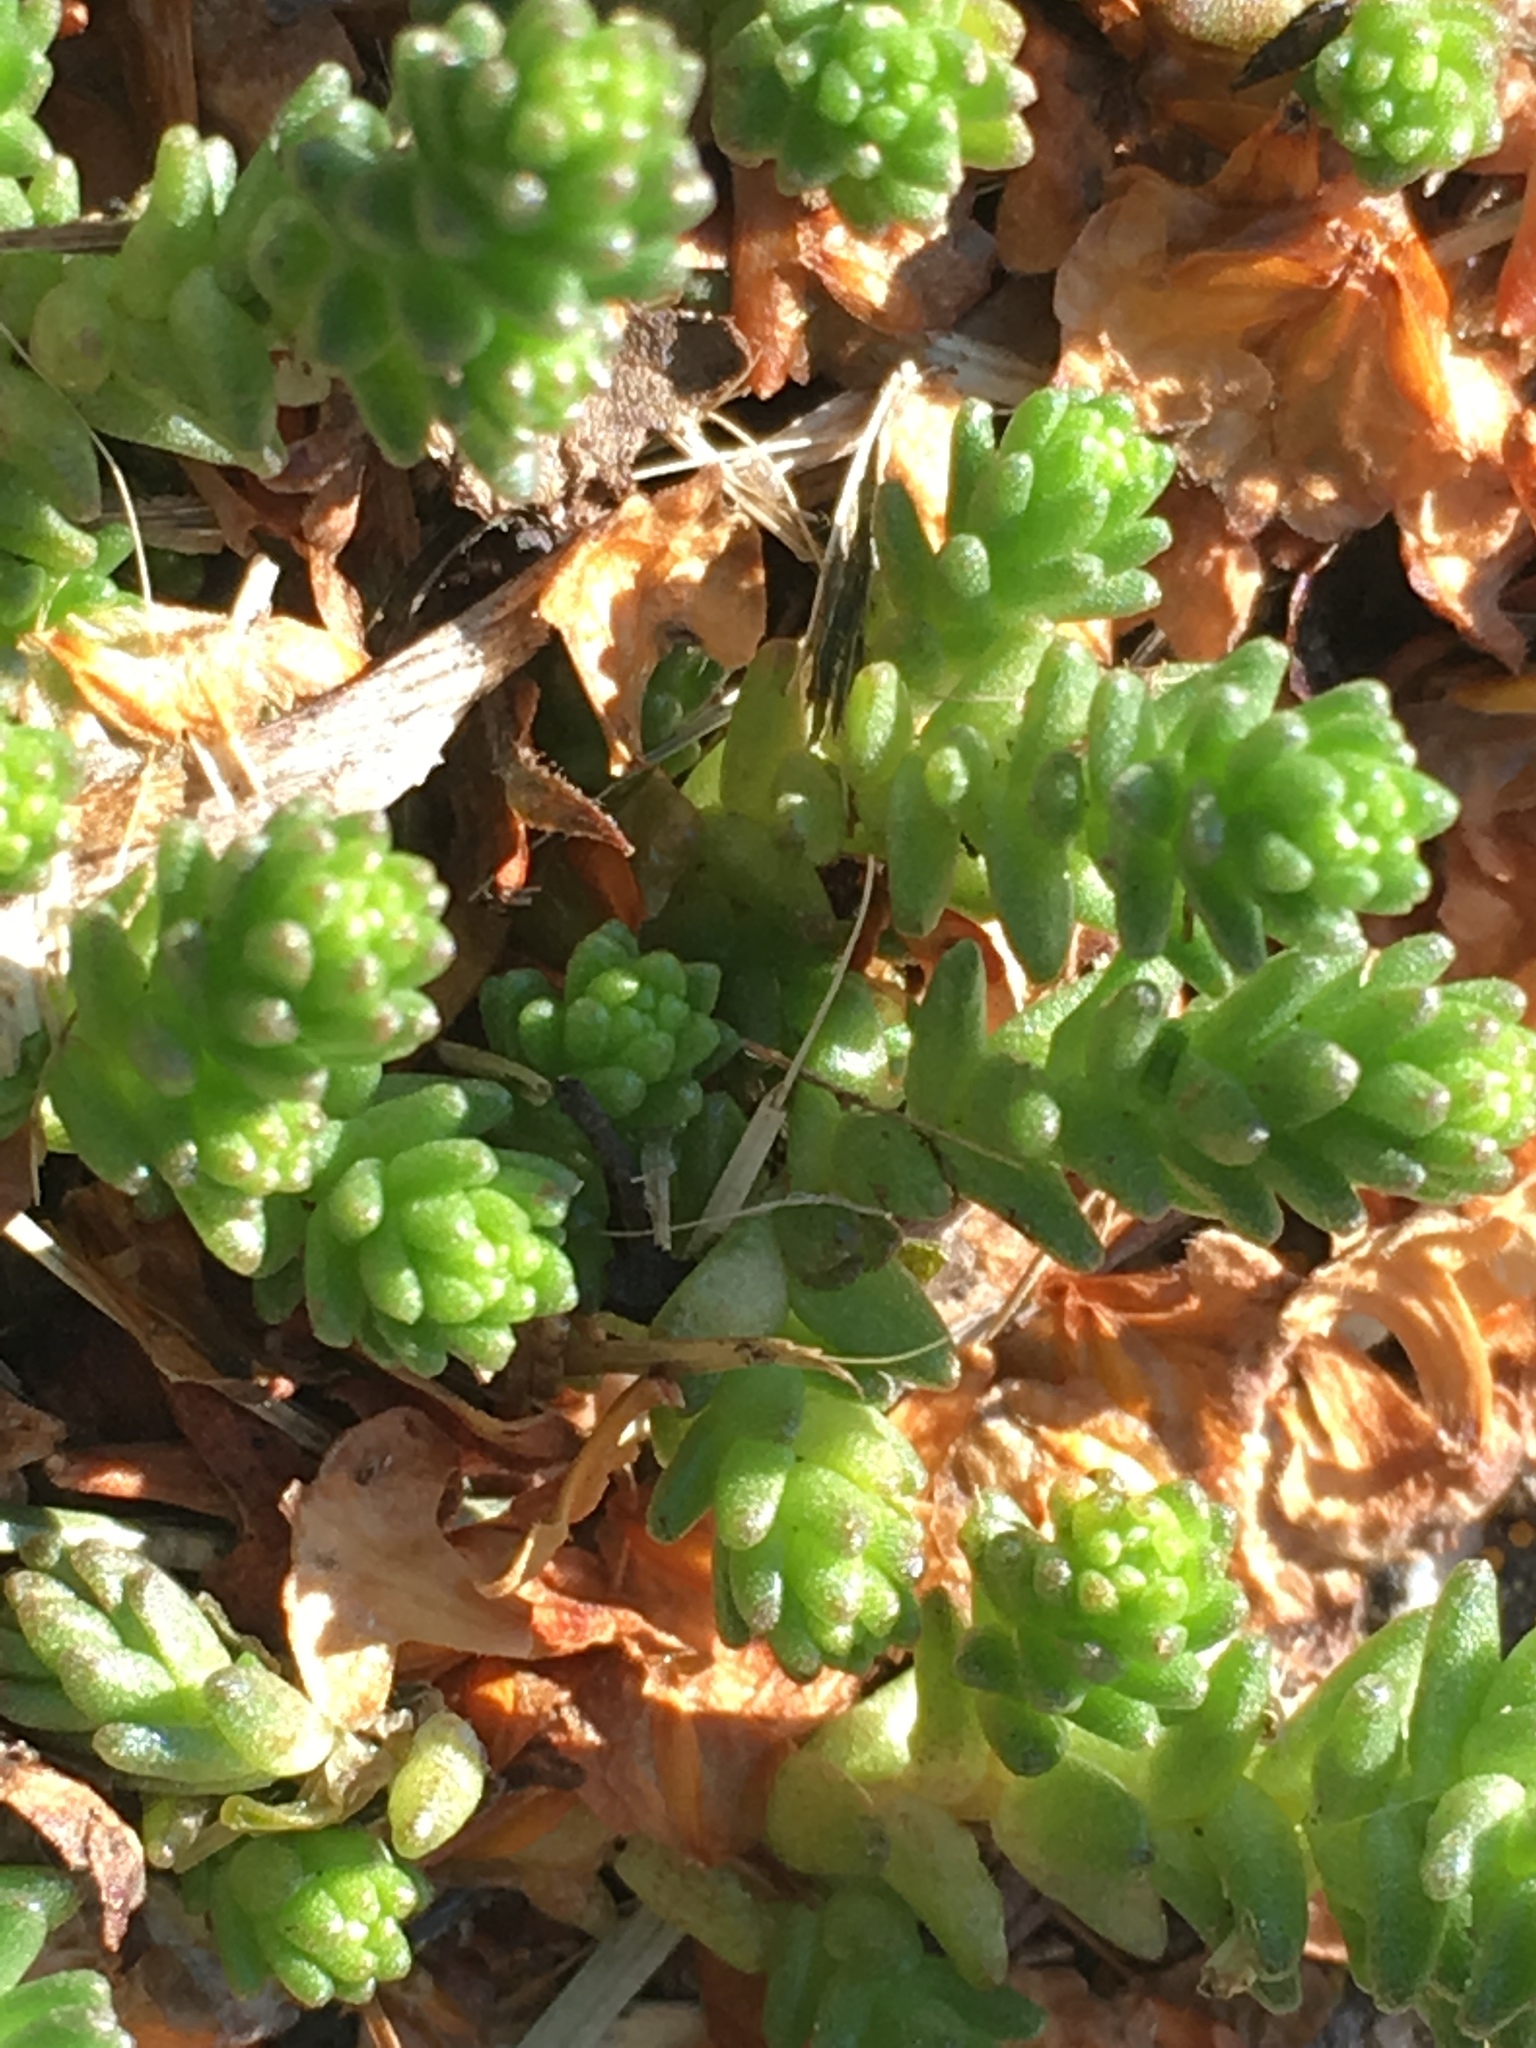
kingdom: Plantae
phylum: Tracheophyta
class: Magnoliopsida
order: Saxifragales
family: Crassulaceae
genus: Sedum
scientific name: Sedum acre
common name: Biting stonecrop
